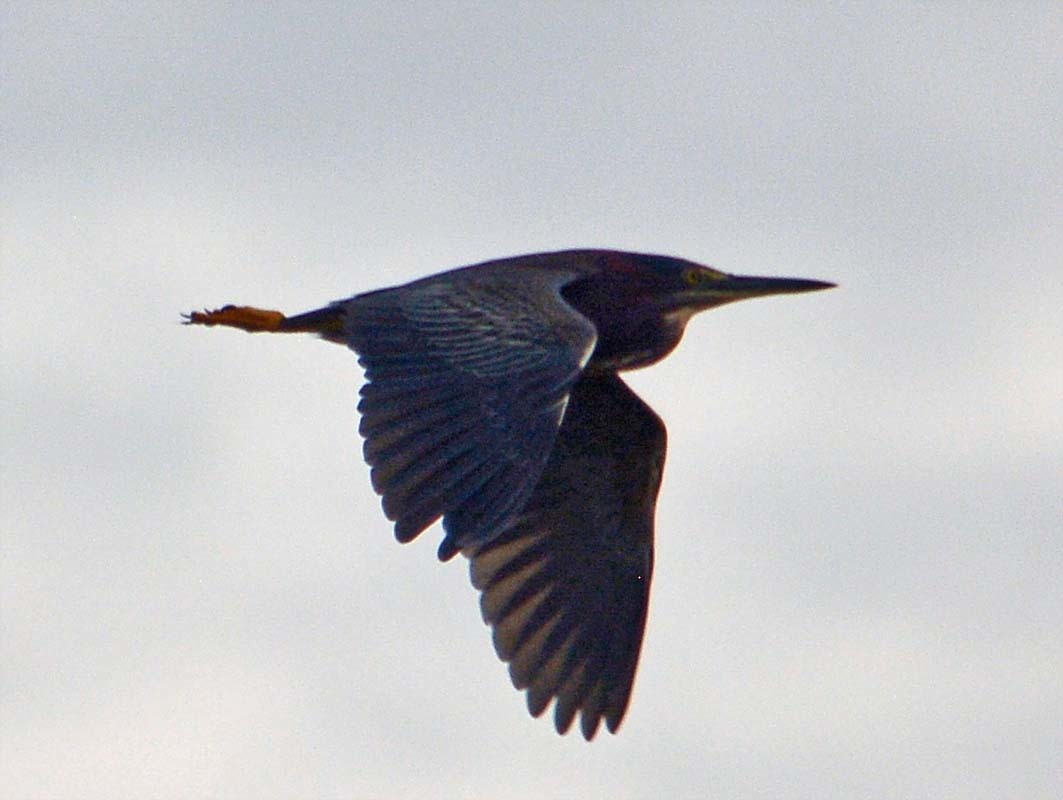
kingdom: Animalia
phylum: Chordata
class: Aves
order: Pelecaniformes
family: Ardeidae
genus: Butorides
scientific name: Butorides virescens
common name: Green heron
